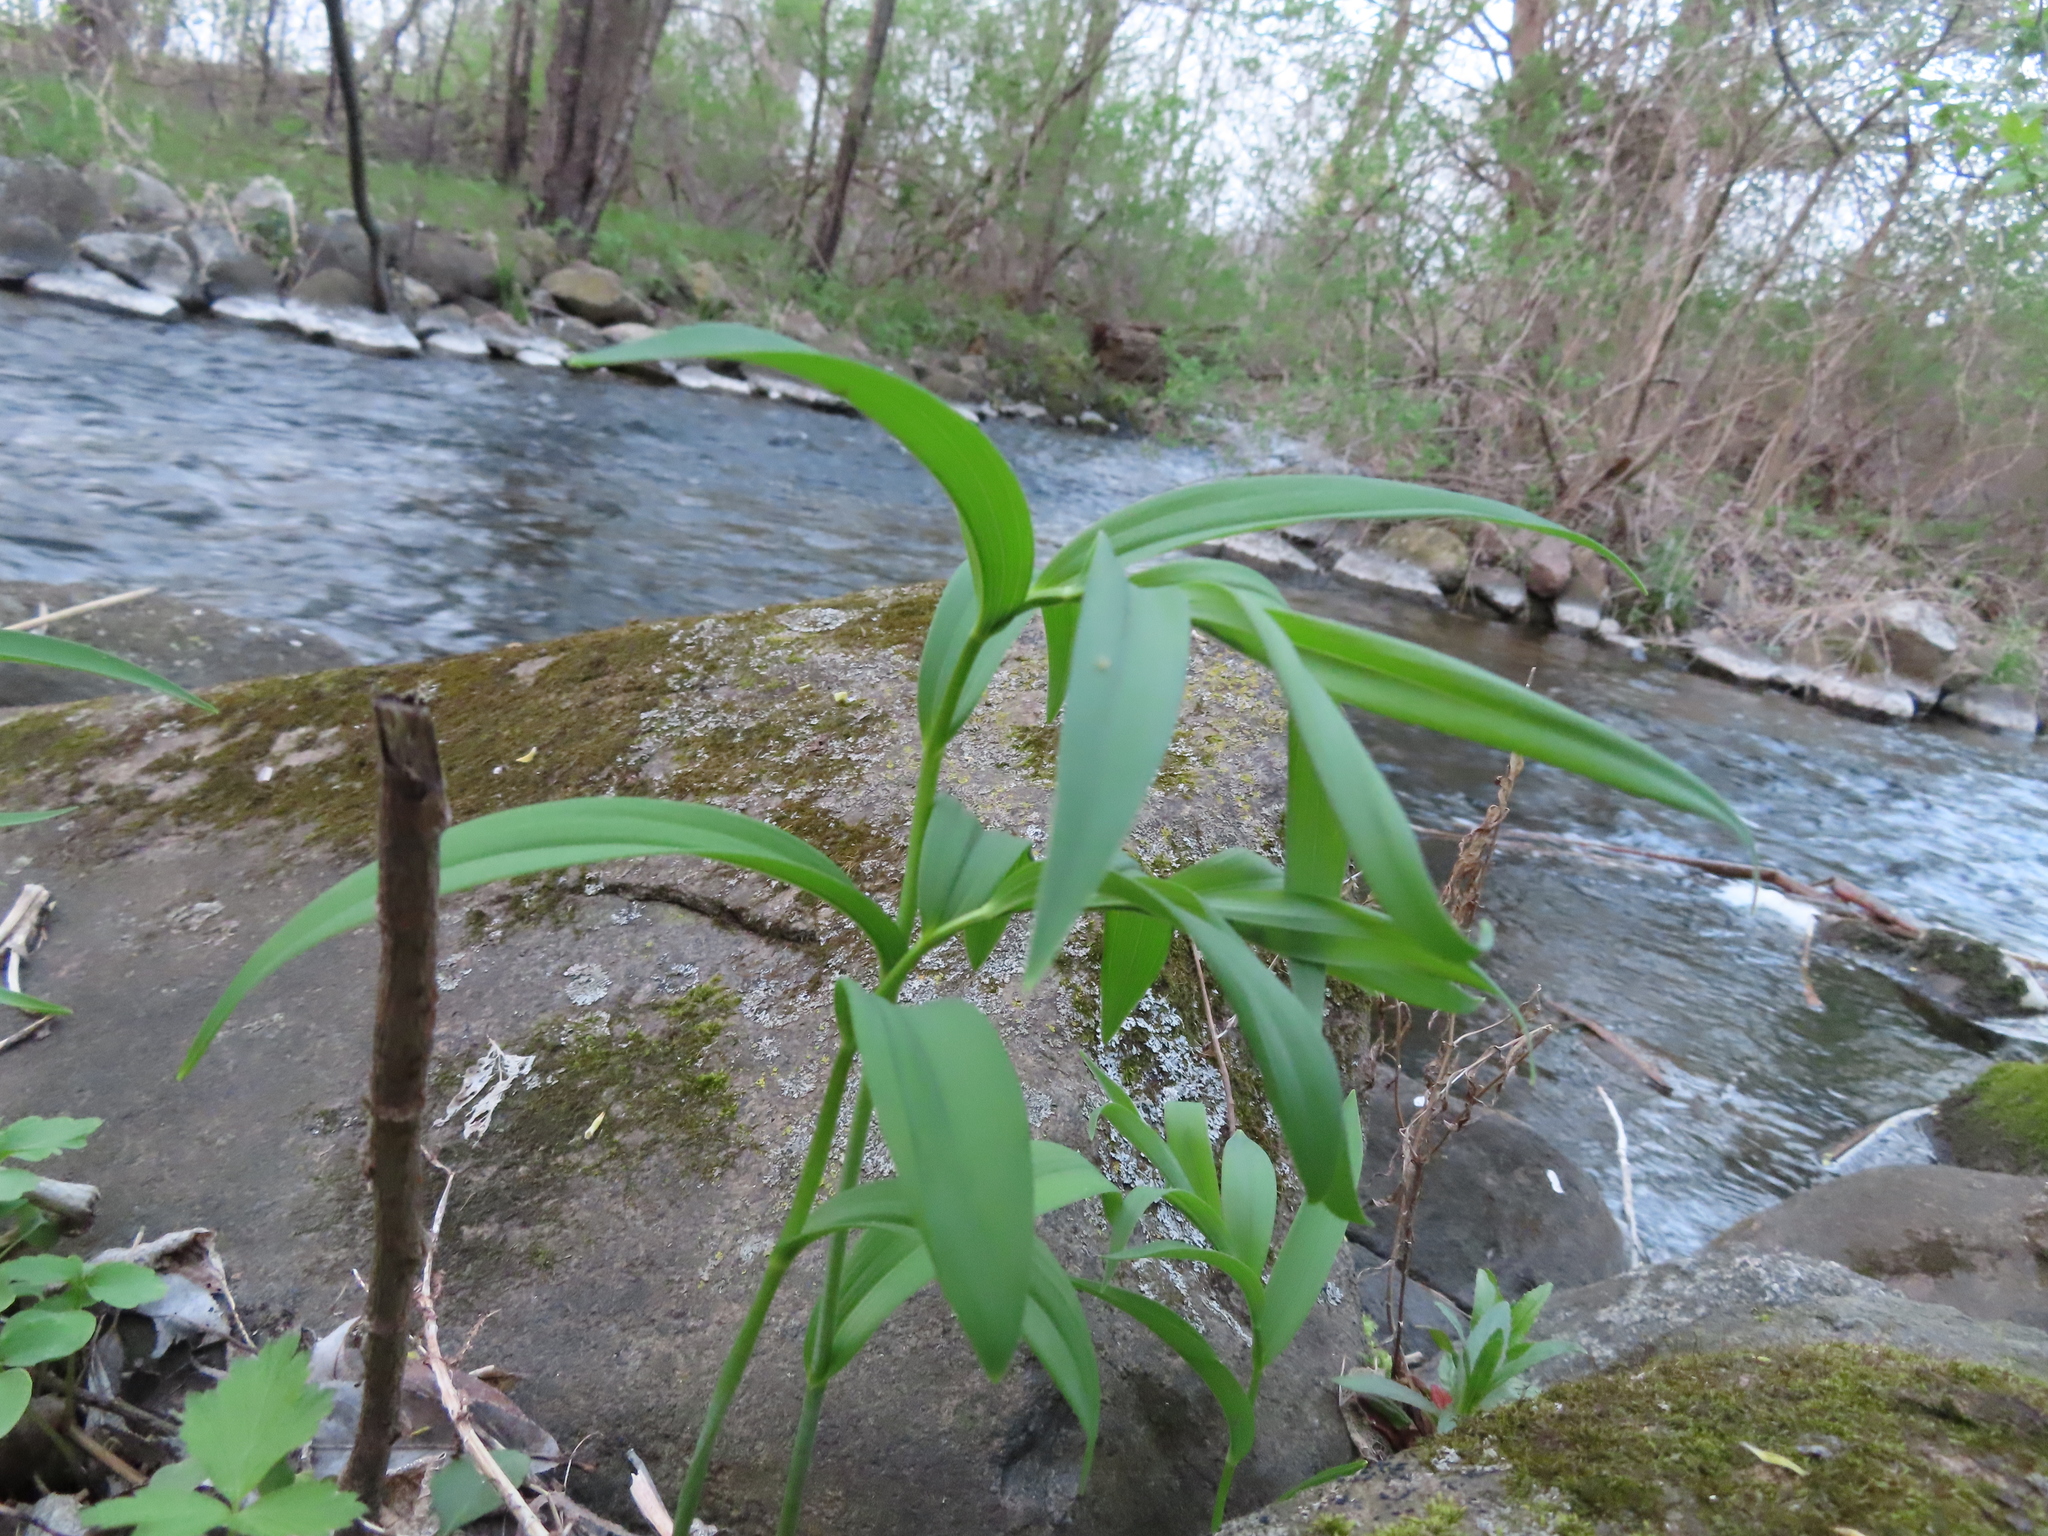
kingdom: Plantae
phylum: Tracheophyta
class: Liliopsida
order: Asparagales
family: Asparagaceae
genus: Maianthemum
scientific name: Maianthemum stellatum
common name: Little false solomon's seal
